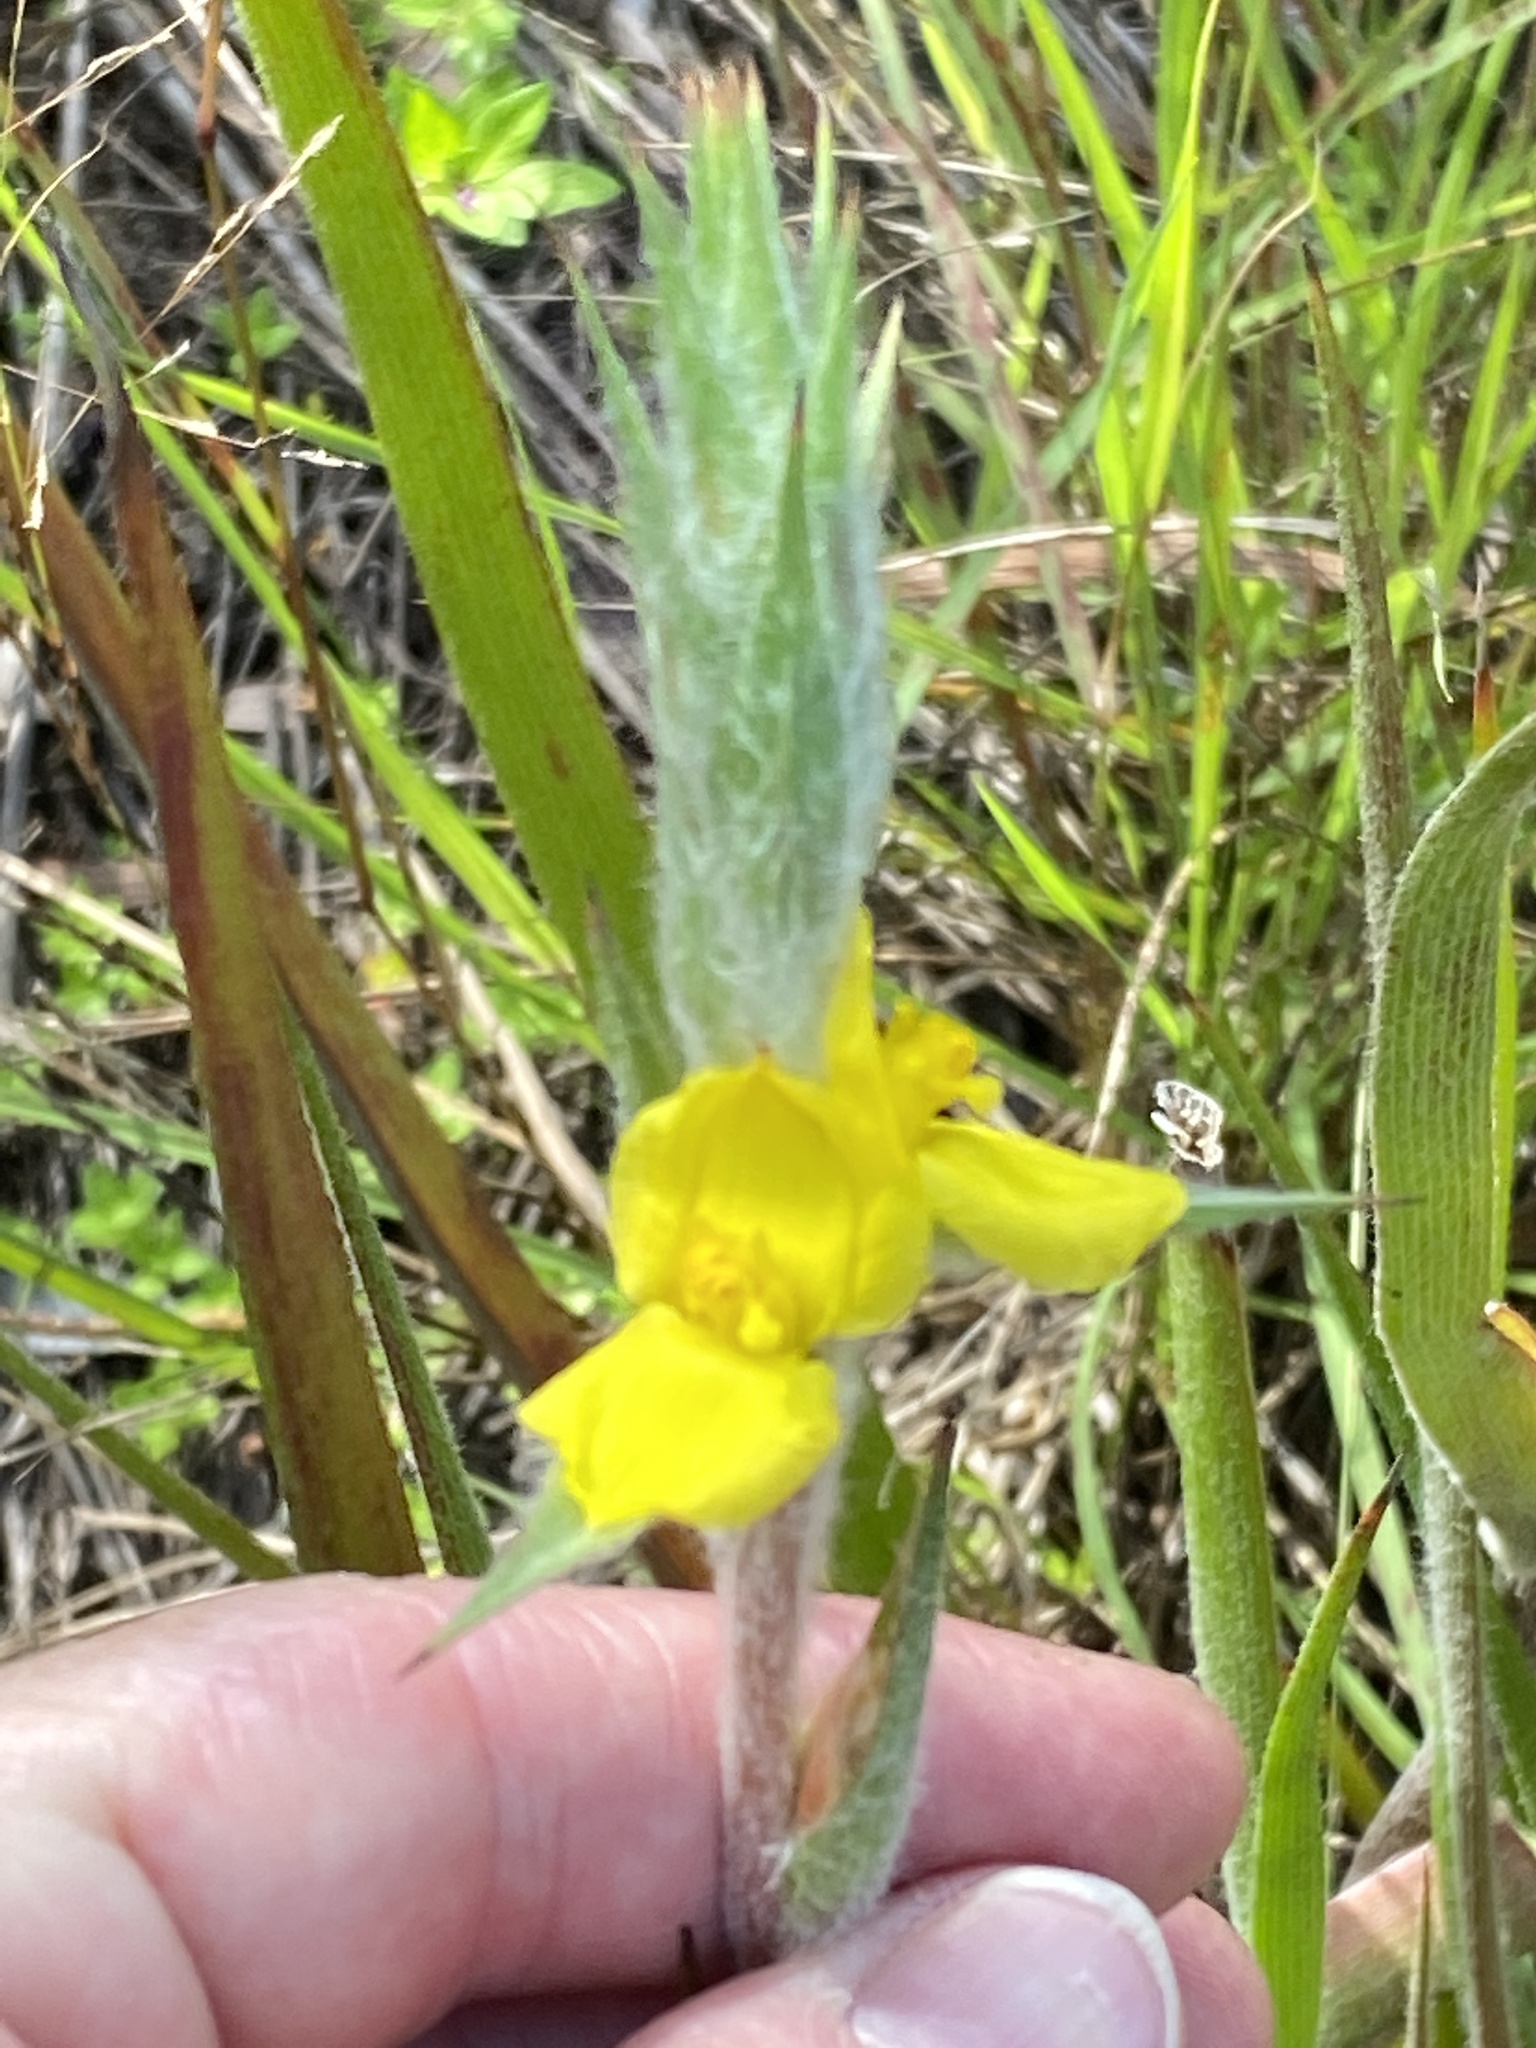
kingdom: Plantae
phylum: Tracheophyta
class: Liliopsida
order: Commelinales
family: Philydraceae
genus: Philydrum
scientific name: Philydrum lanuginosum
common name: Woolly frog's mouth
